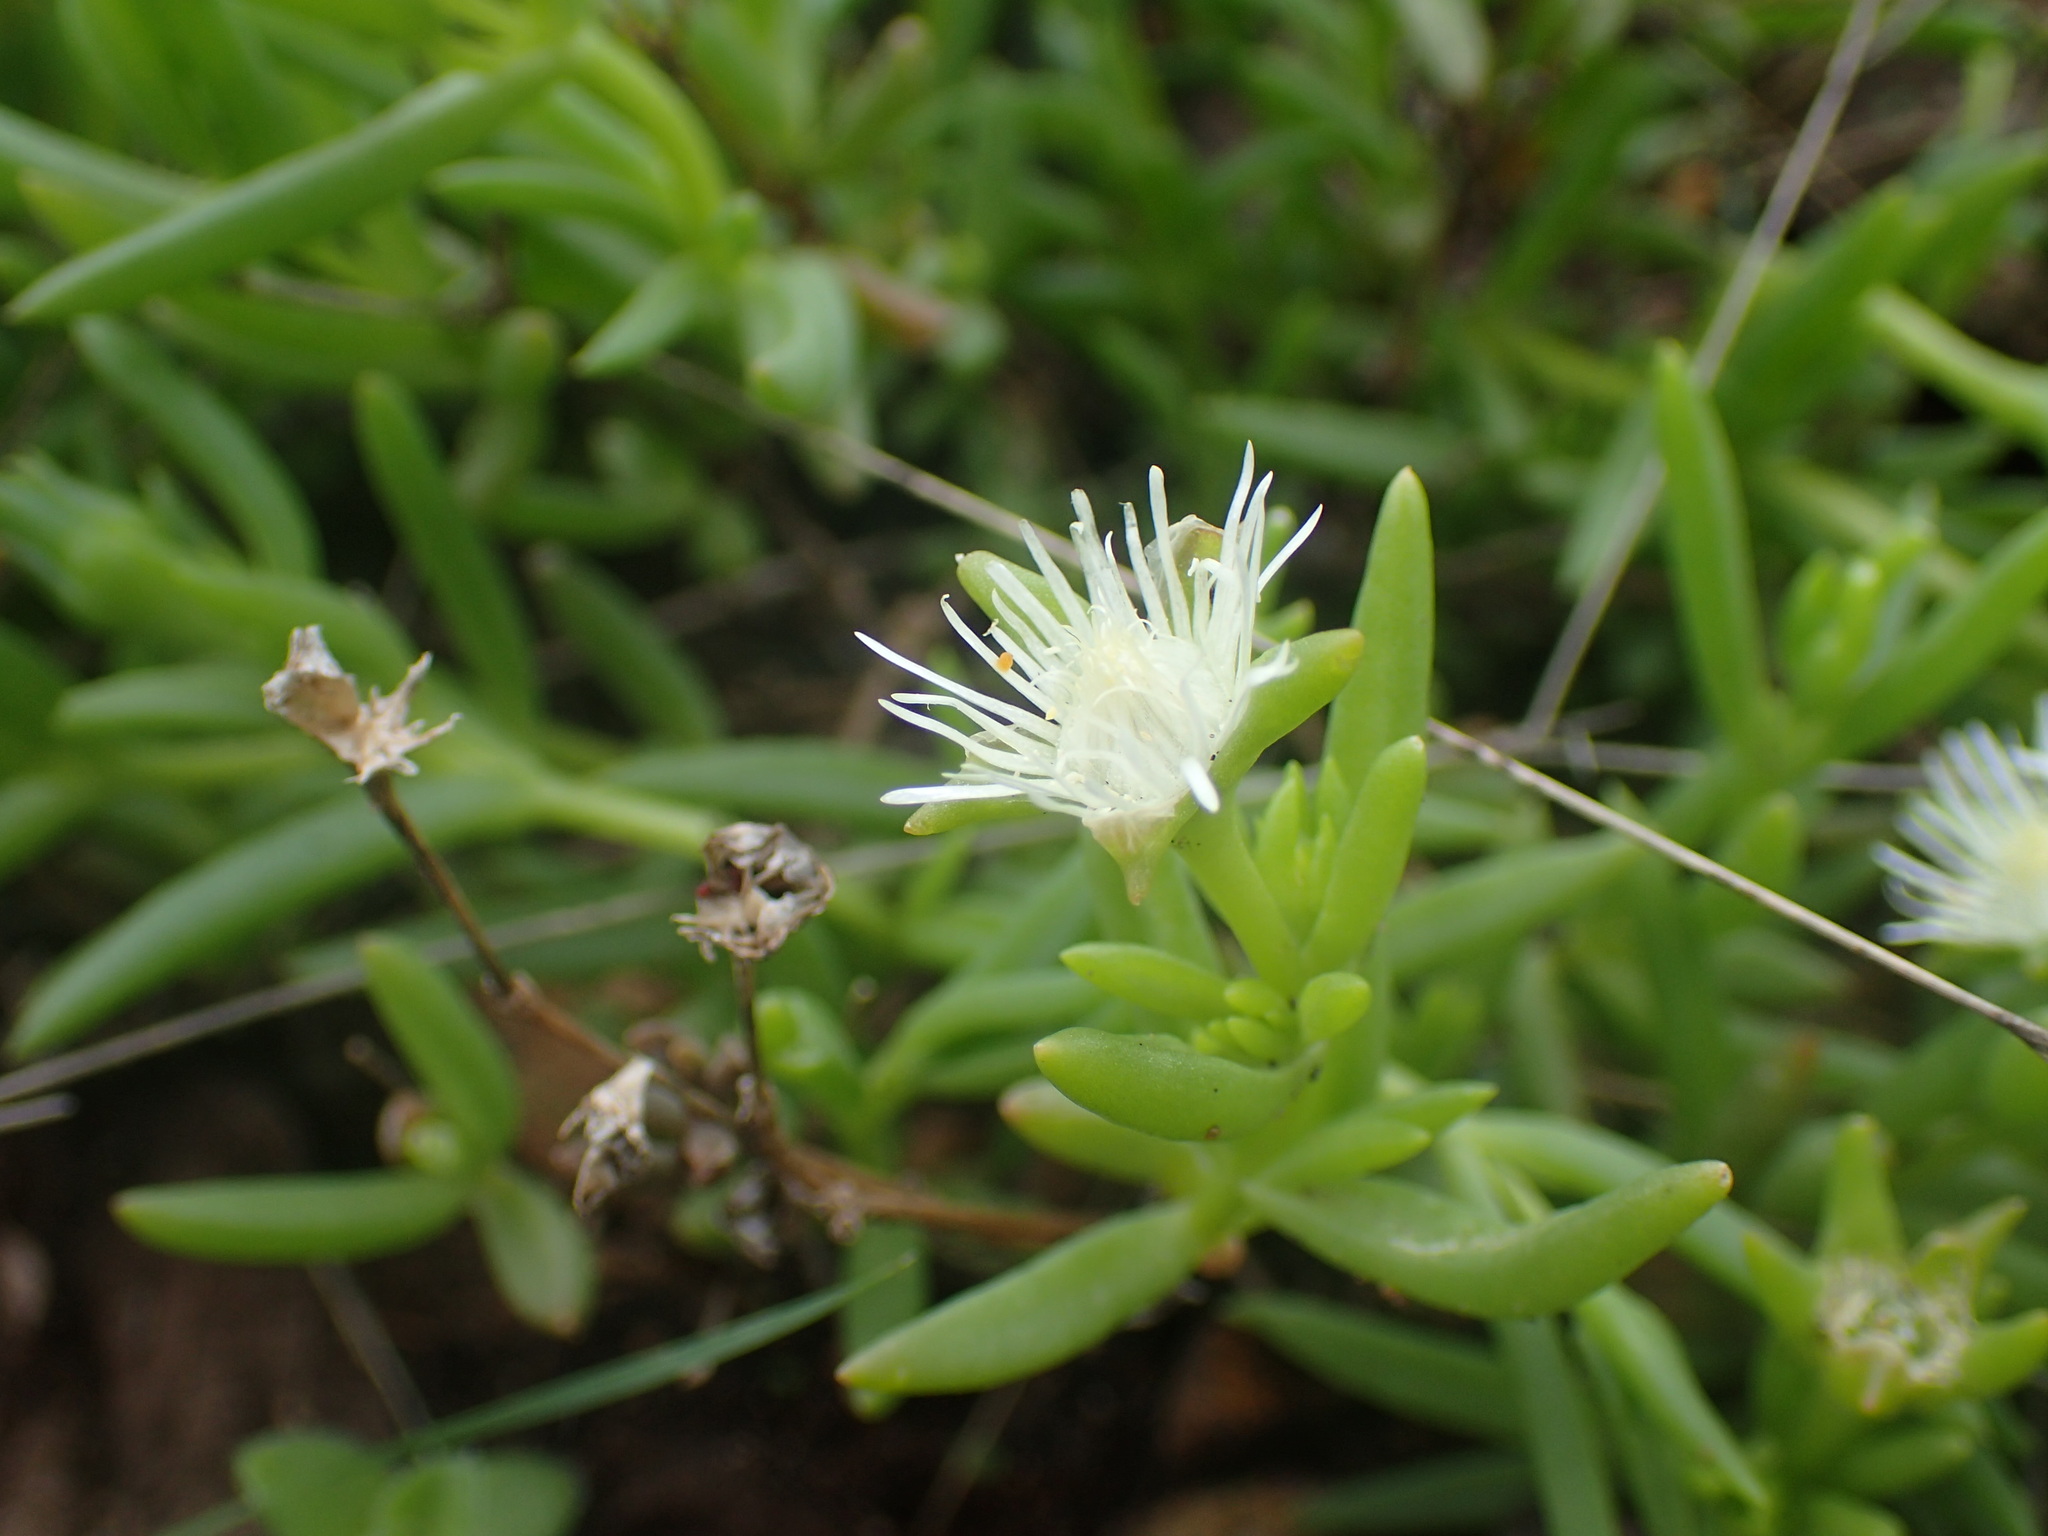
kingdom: Plantae
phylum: Tracheophyta
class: Magnoliopsida
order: Caryophyllales
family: Aizoaceae
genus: Delosperma
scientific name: Delosperma lineare
